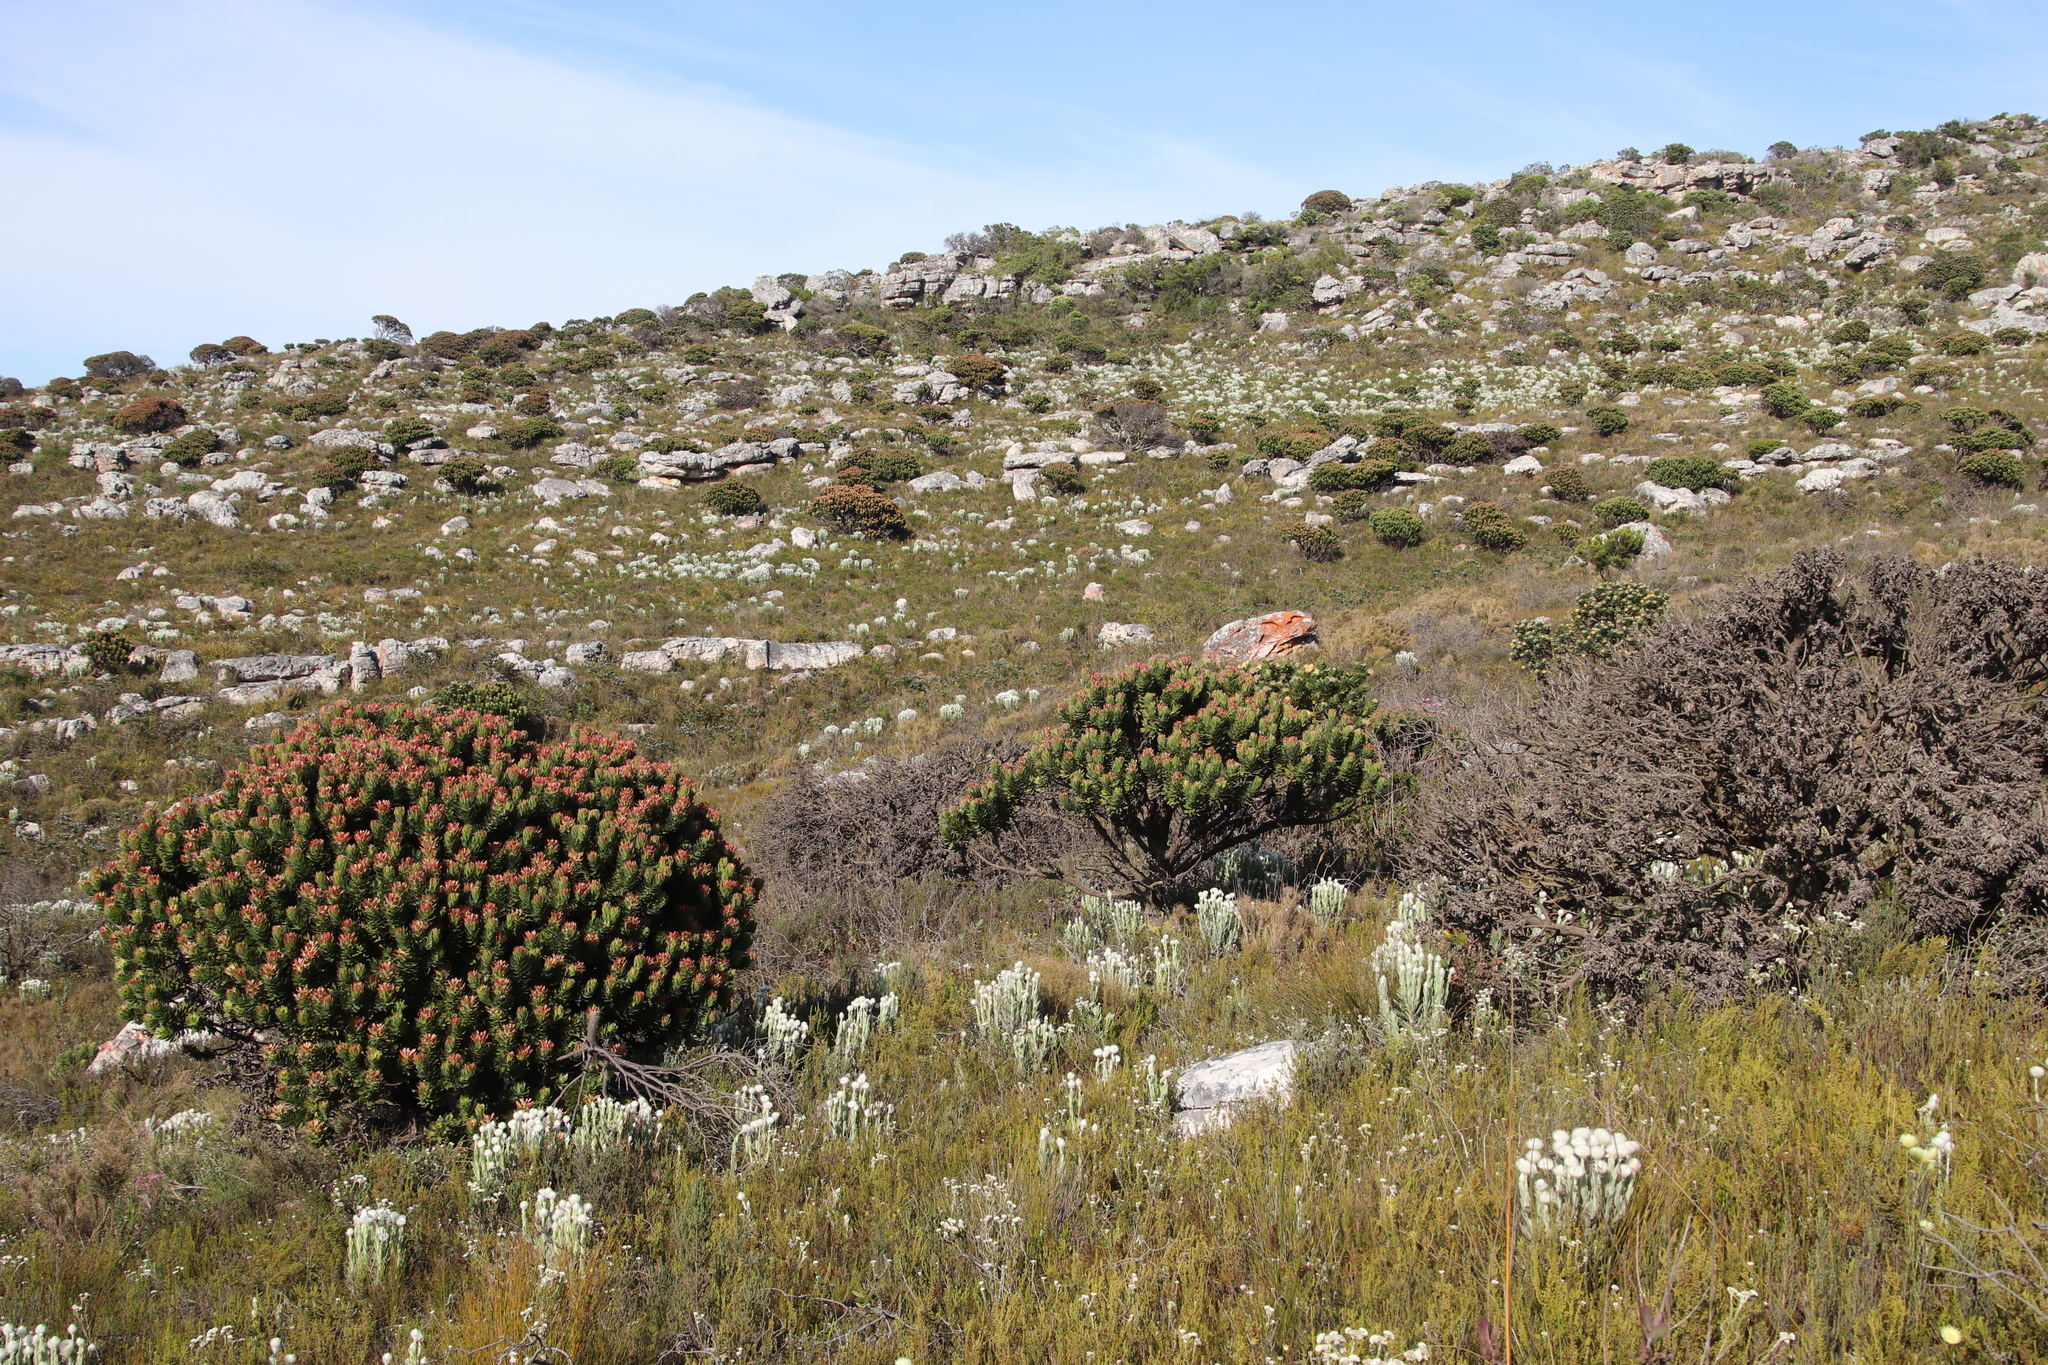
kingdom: Plantae
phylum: Tracheophyta
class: Magnoliopsida
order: Proteales
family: Proteaceae
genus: Mimetes
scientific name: Mimetes fimbriifolius
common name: Fringed bottlebrush
